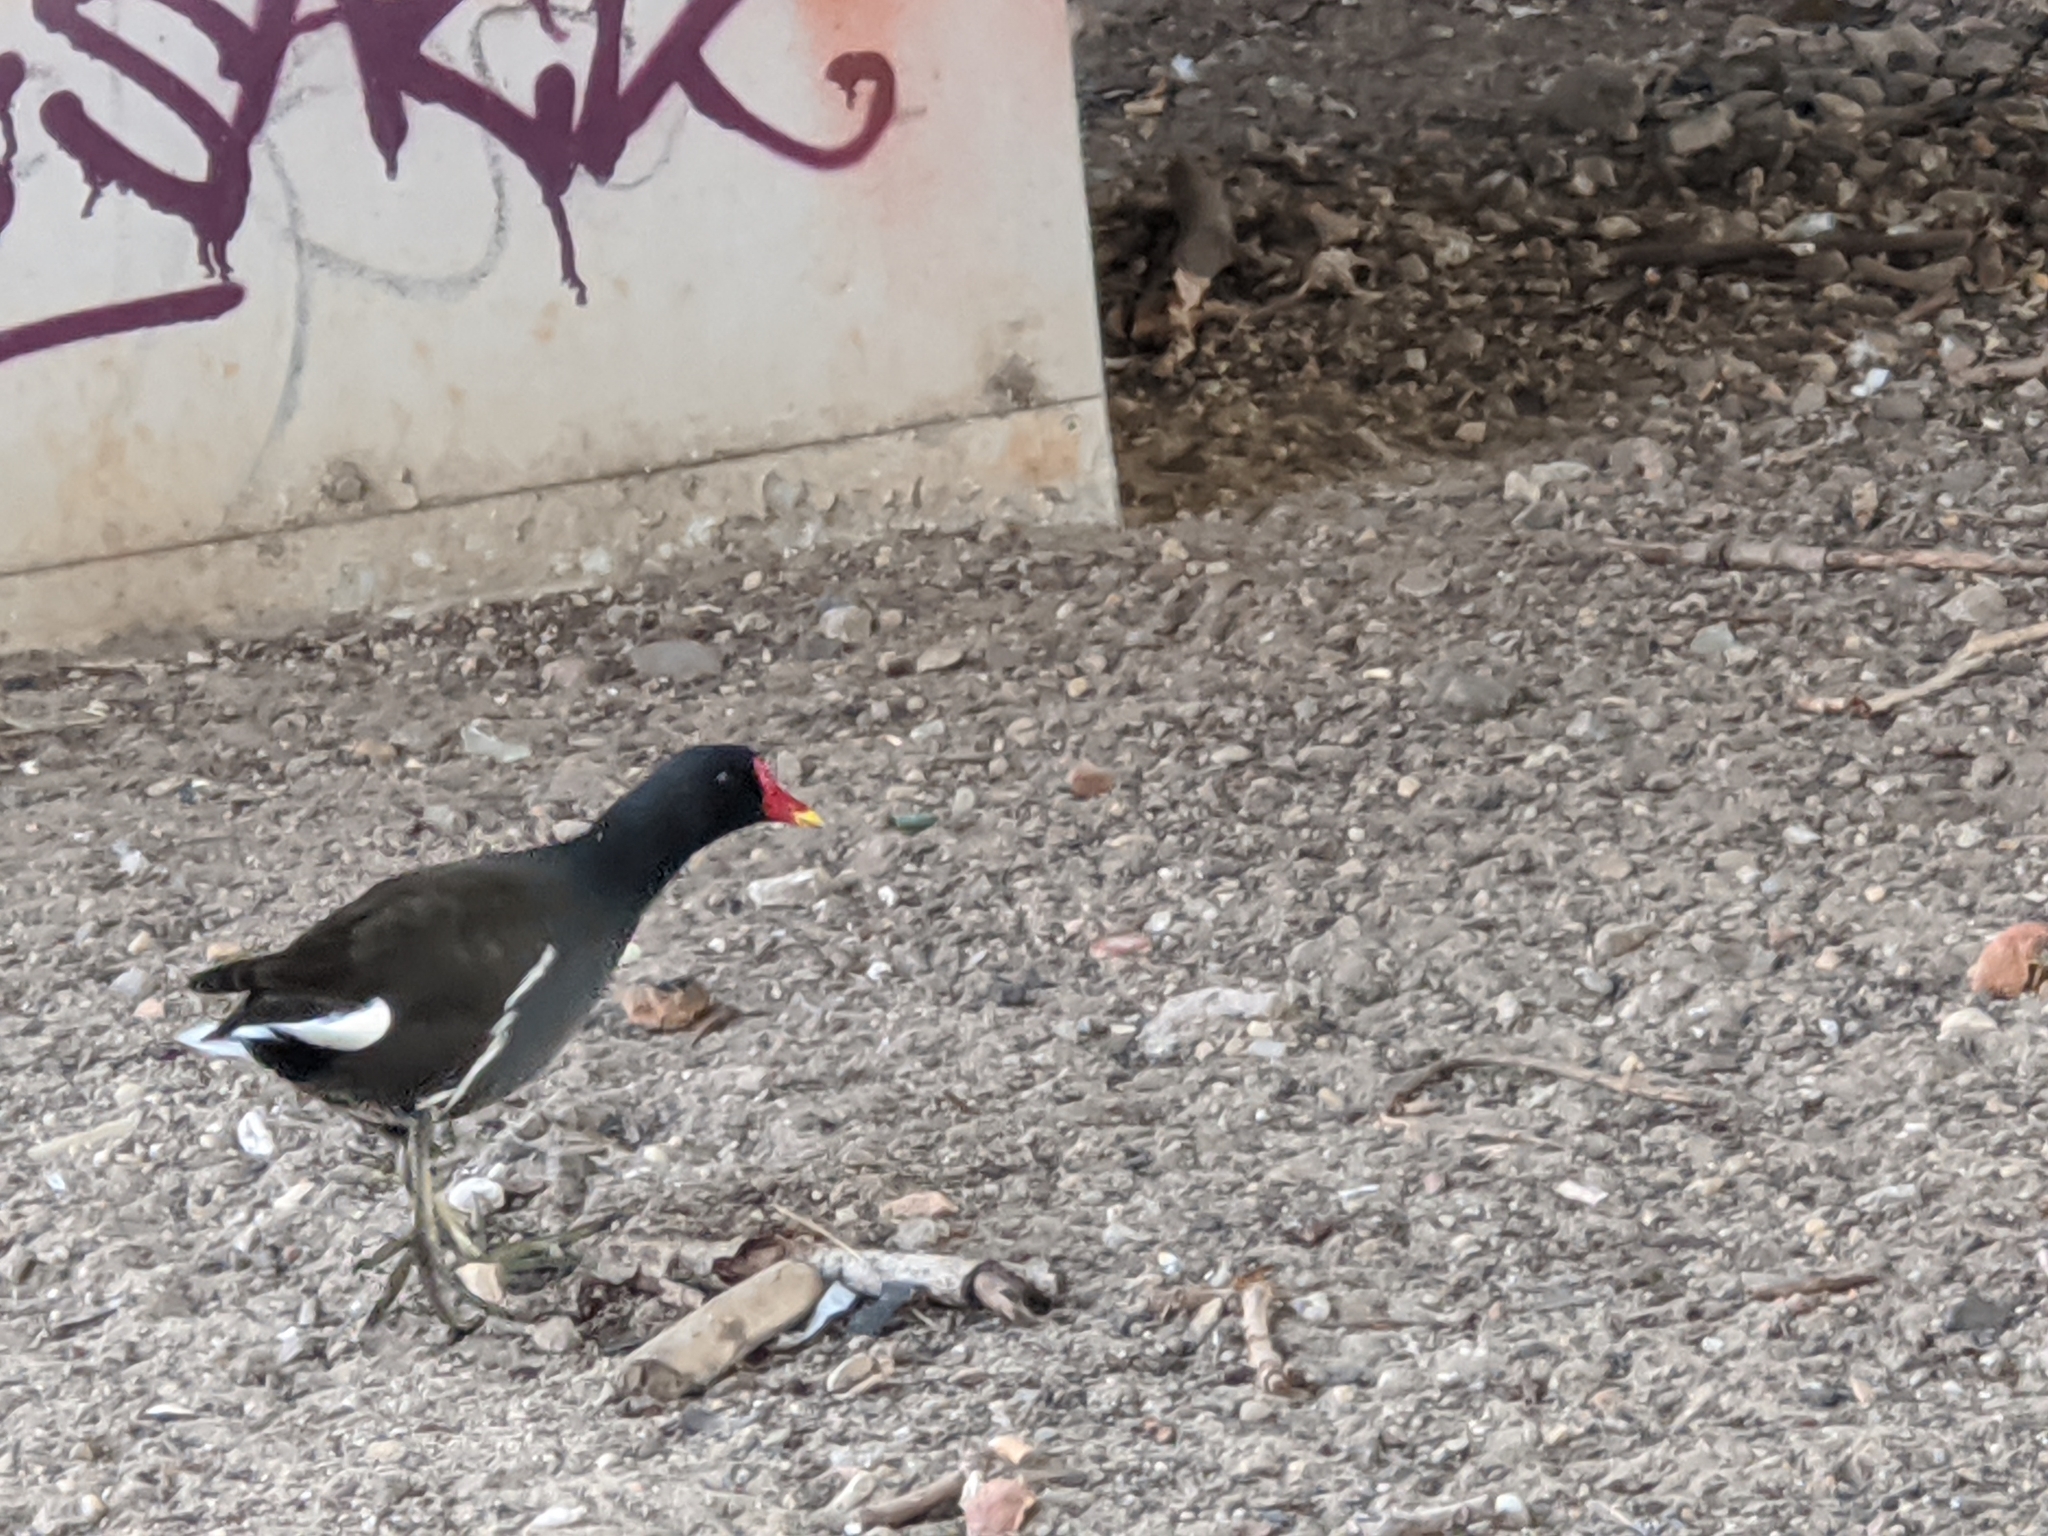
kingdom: Animalia
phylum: Chordata
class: Aves
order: Gruiformes
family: Rallidae
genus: Gallinula
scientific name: Gallinula chloropus
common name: Common moorhen
